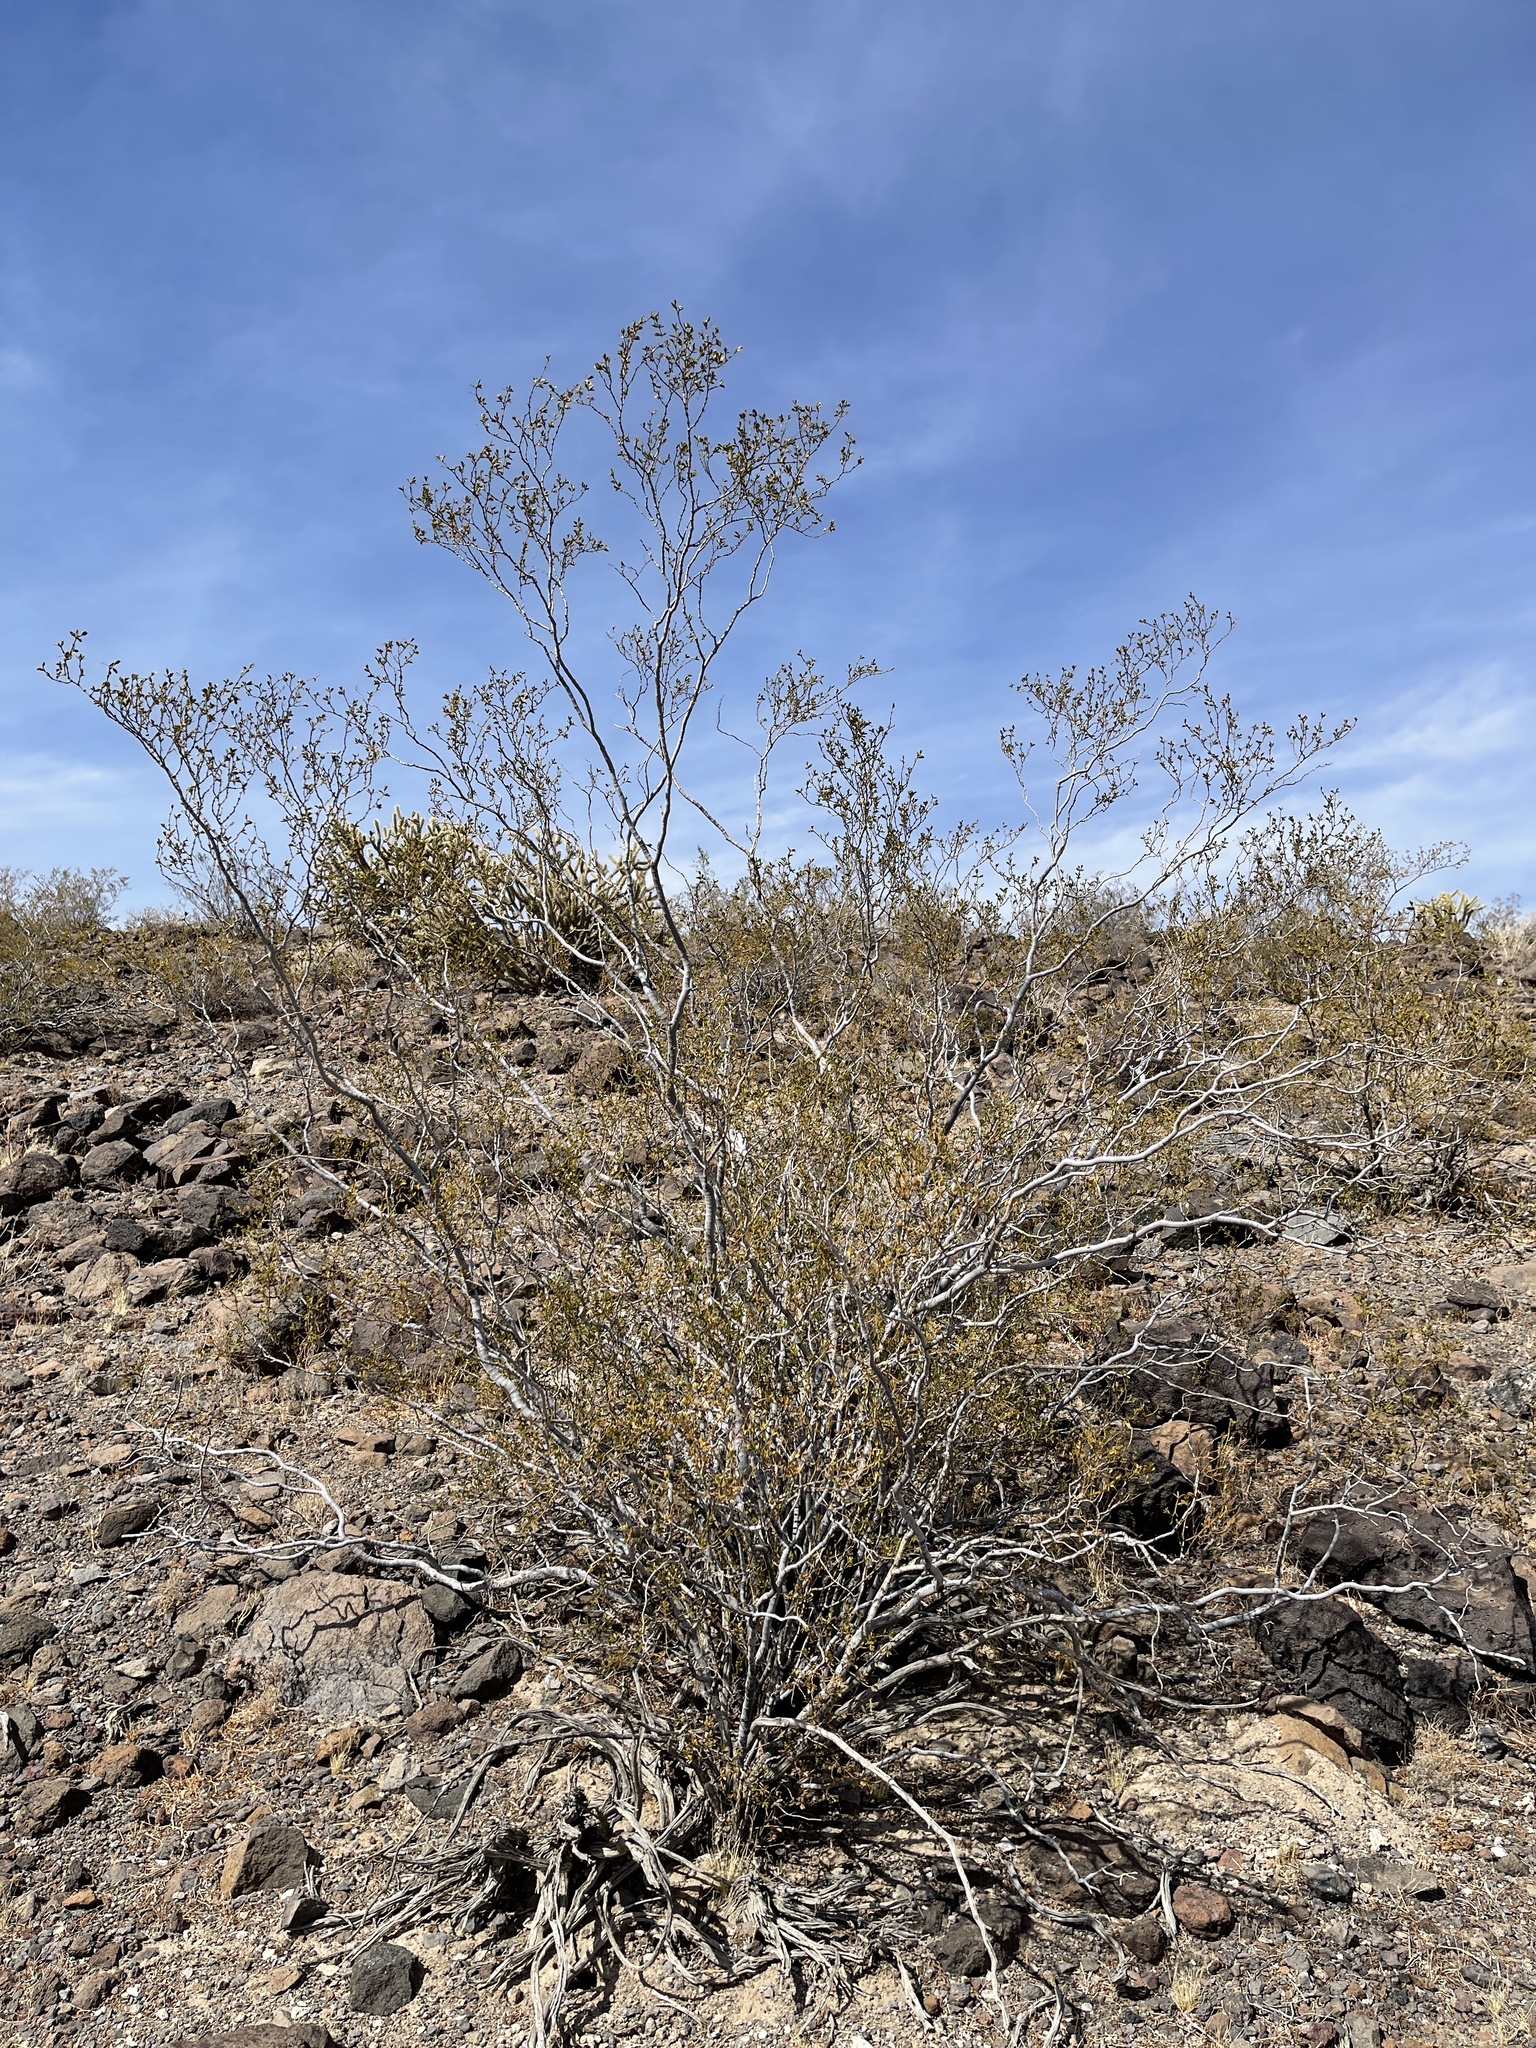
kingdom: Plantae
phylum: Tracheophyta
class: Magnoliopsida
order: Zygophyllales
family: Zygophyllaceae
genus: Larrea
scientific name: Larrea tridentata
